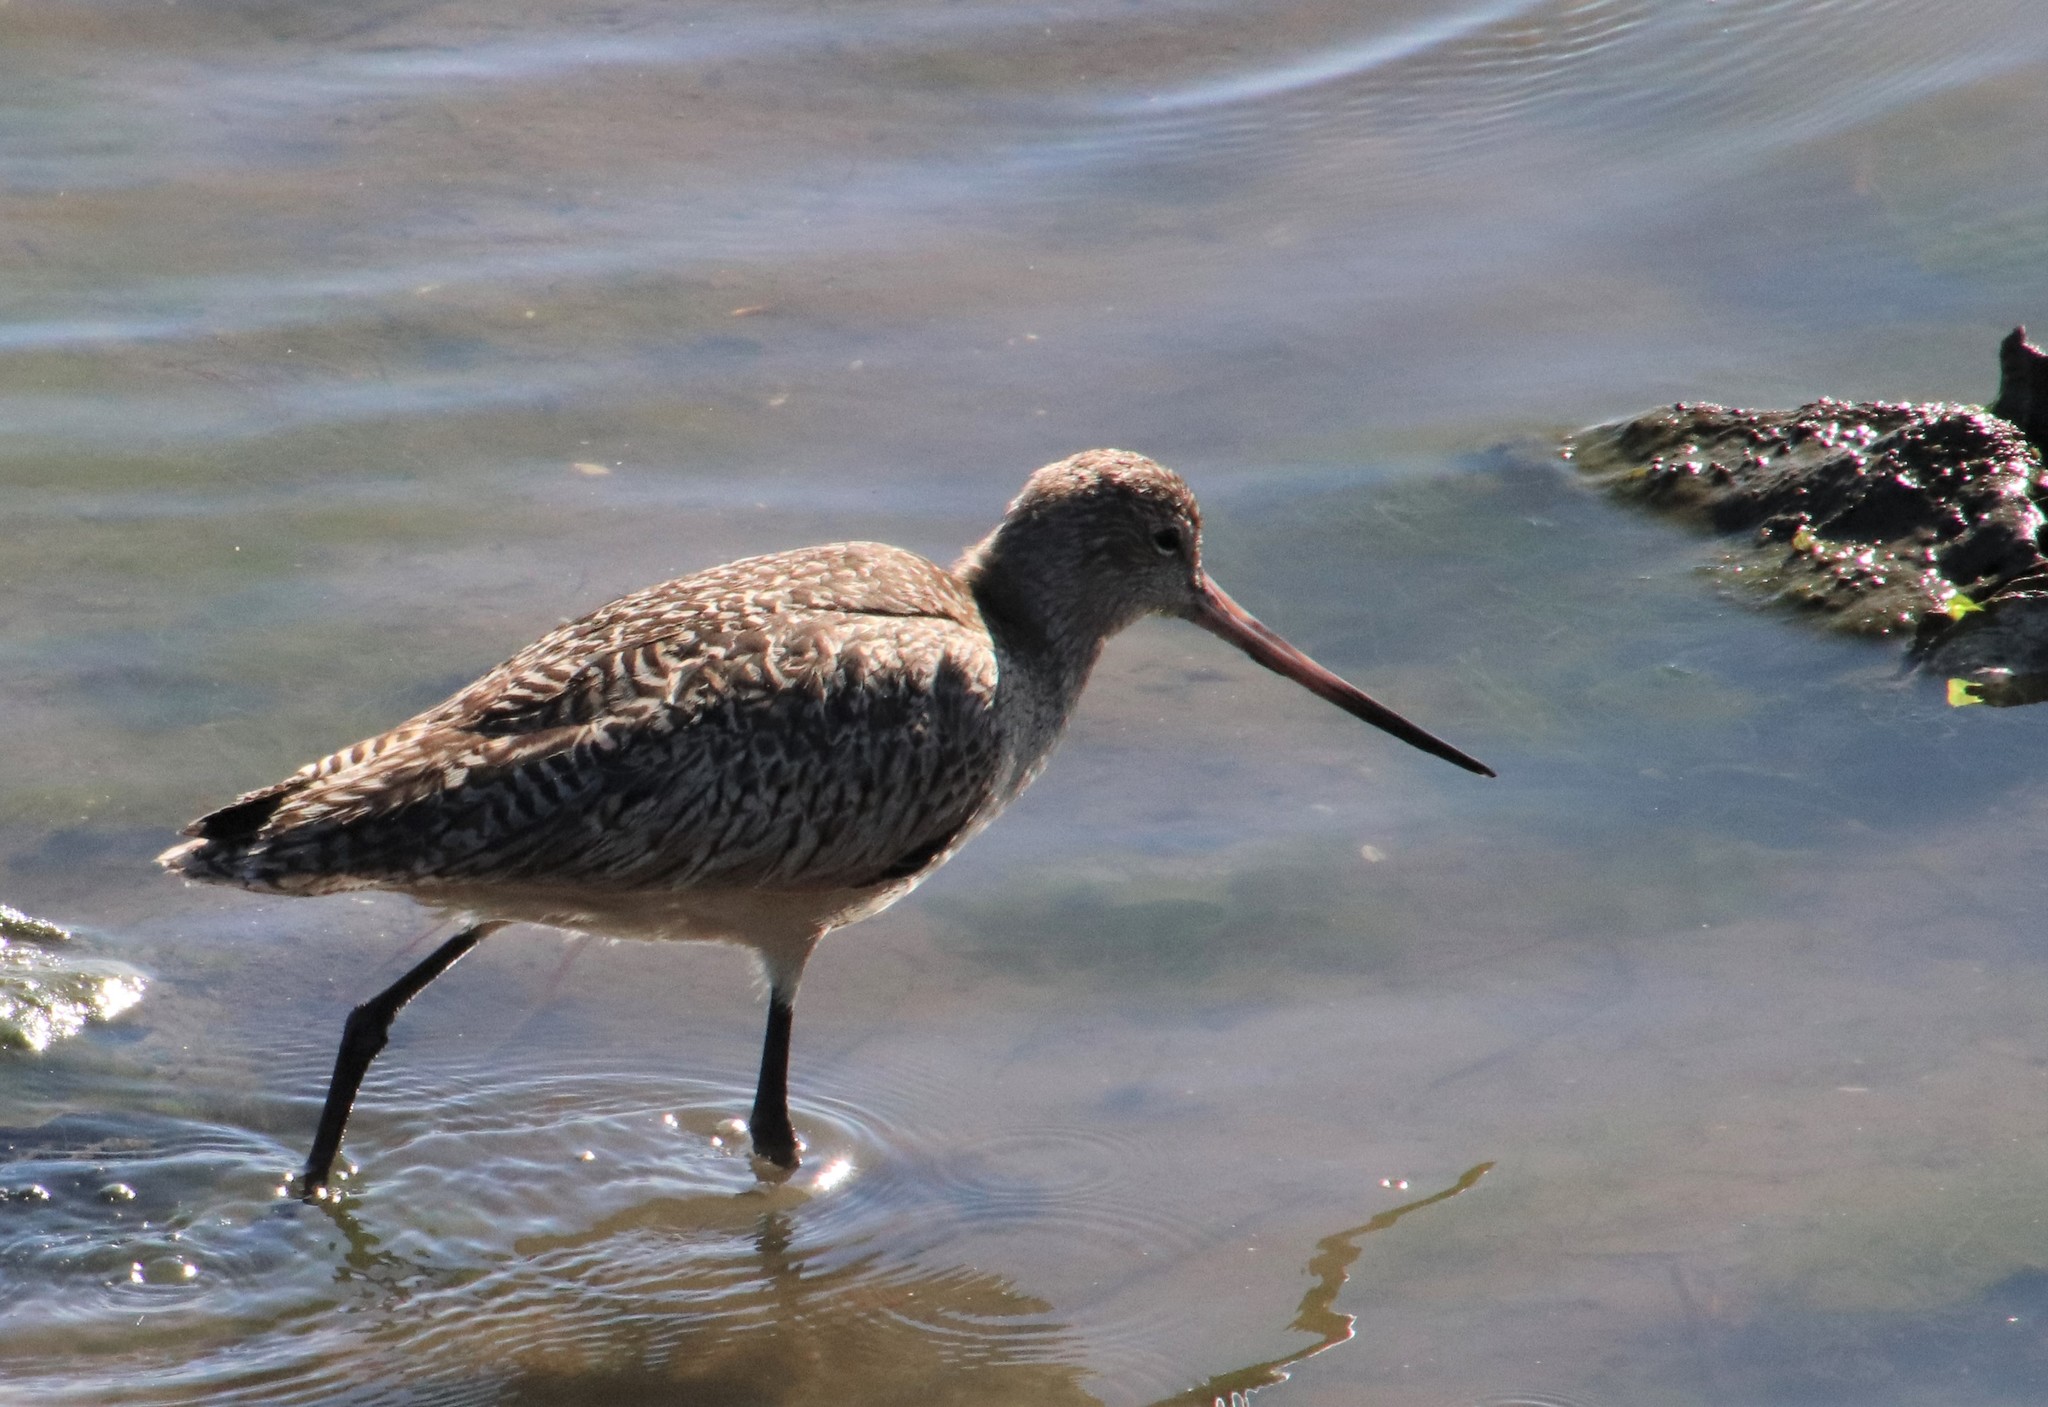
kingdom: Animalia
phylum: Chordata
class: Aves
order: Charadriiformes
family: Scolopacidae
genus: Limosa
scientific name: Limosa fedoa
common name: Marbled godwit
